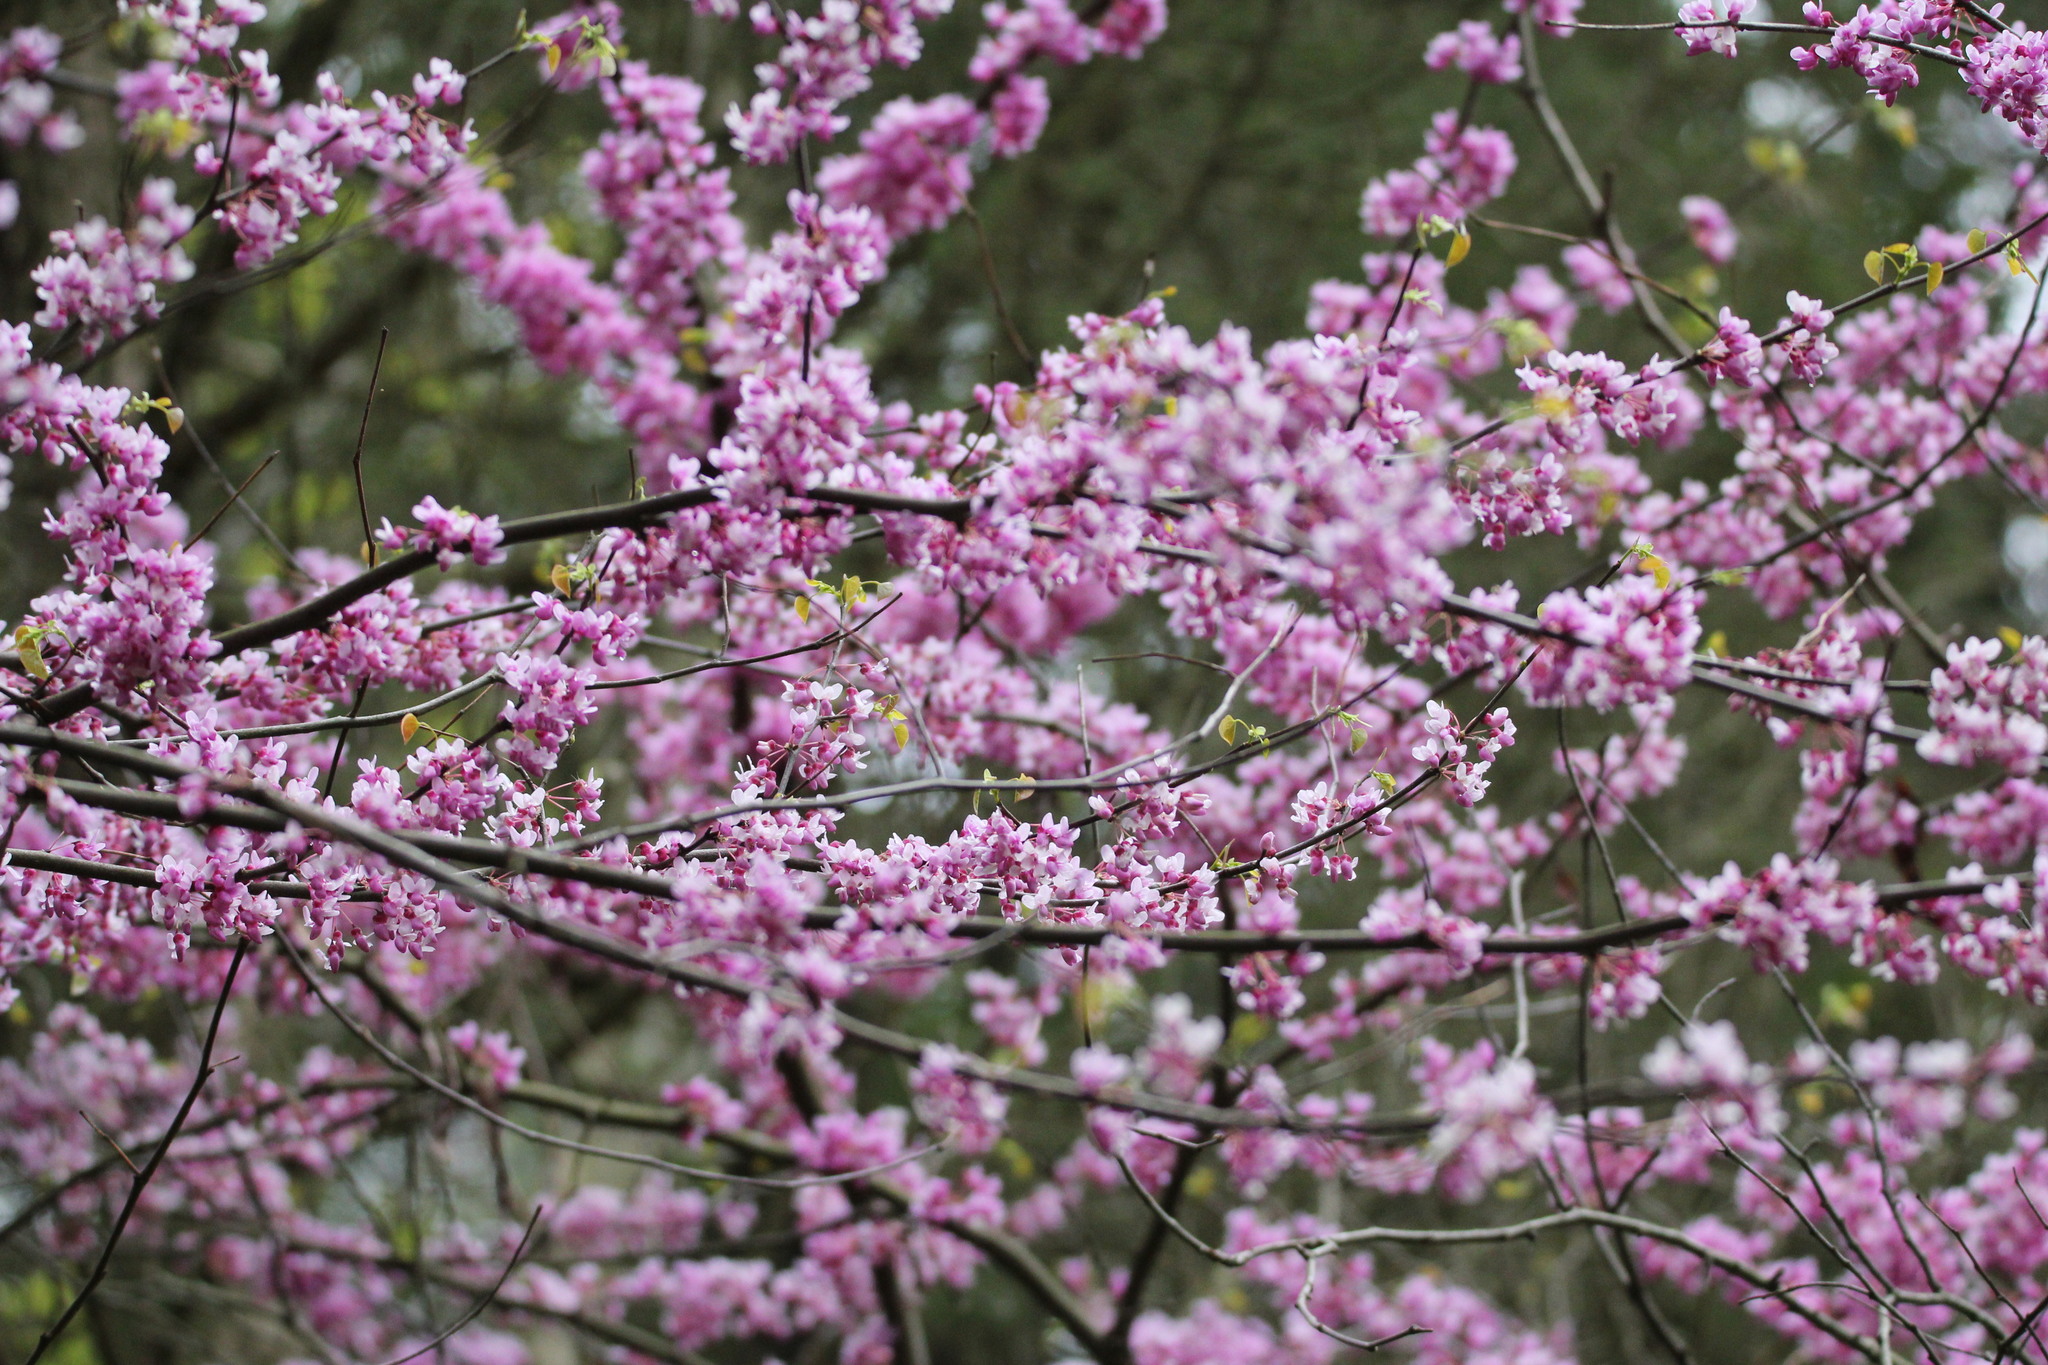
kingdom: Plantae
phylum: Tracheophyta
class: Magnoliopsida
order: Fabales
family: Fabaceae
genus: Cercis
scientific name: Cercis canadensis
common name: Eastern redbud
